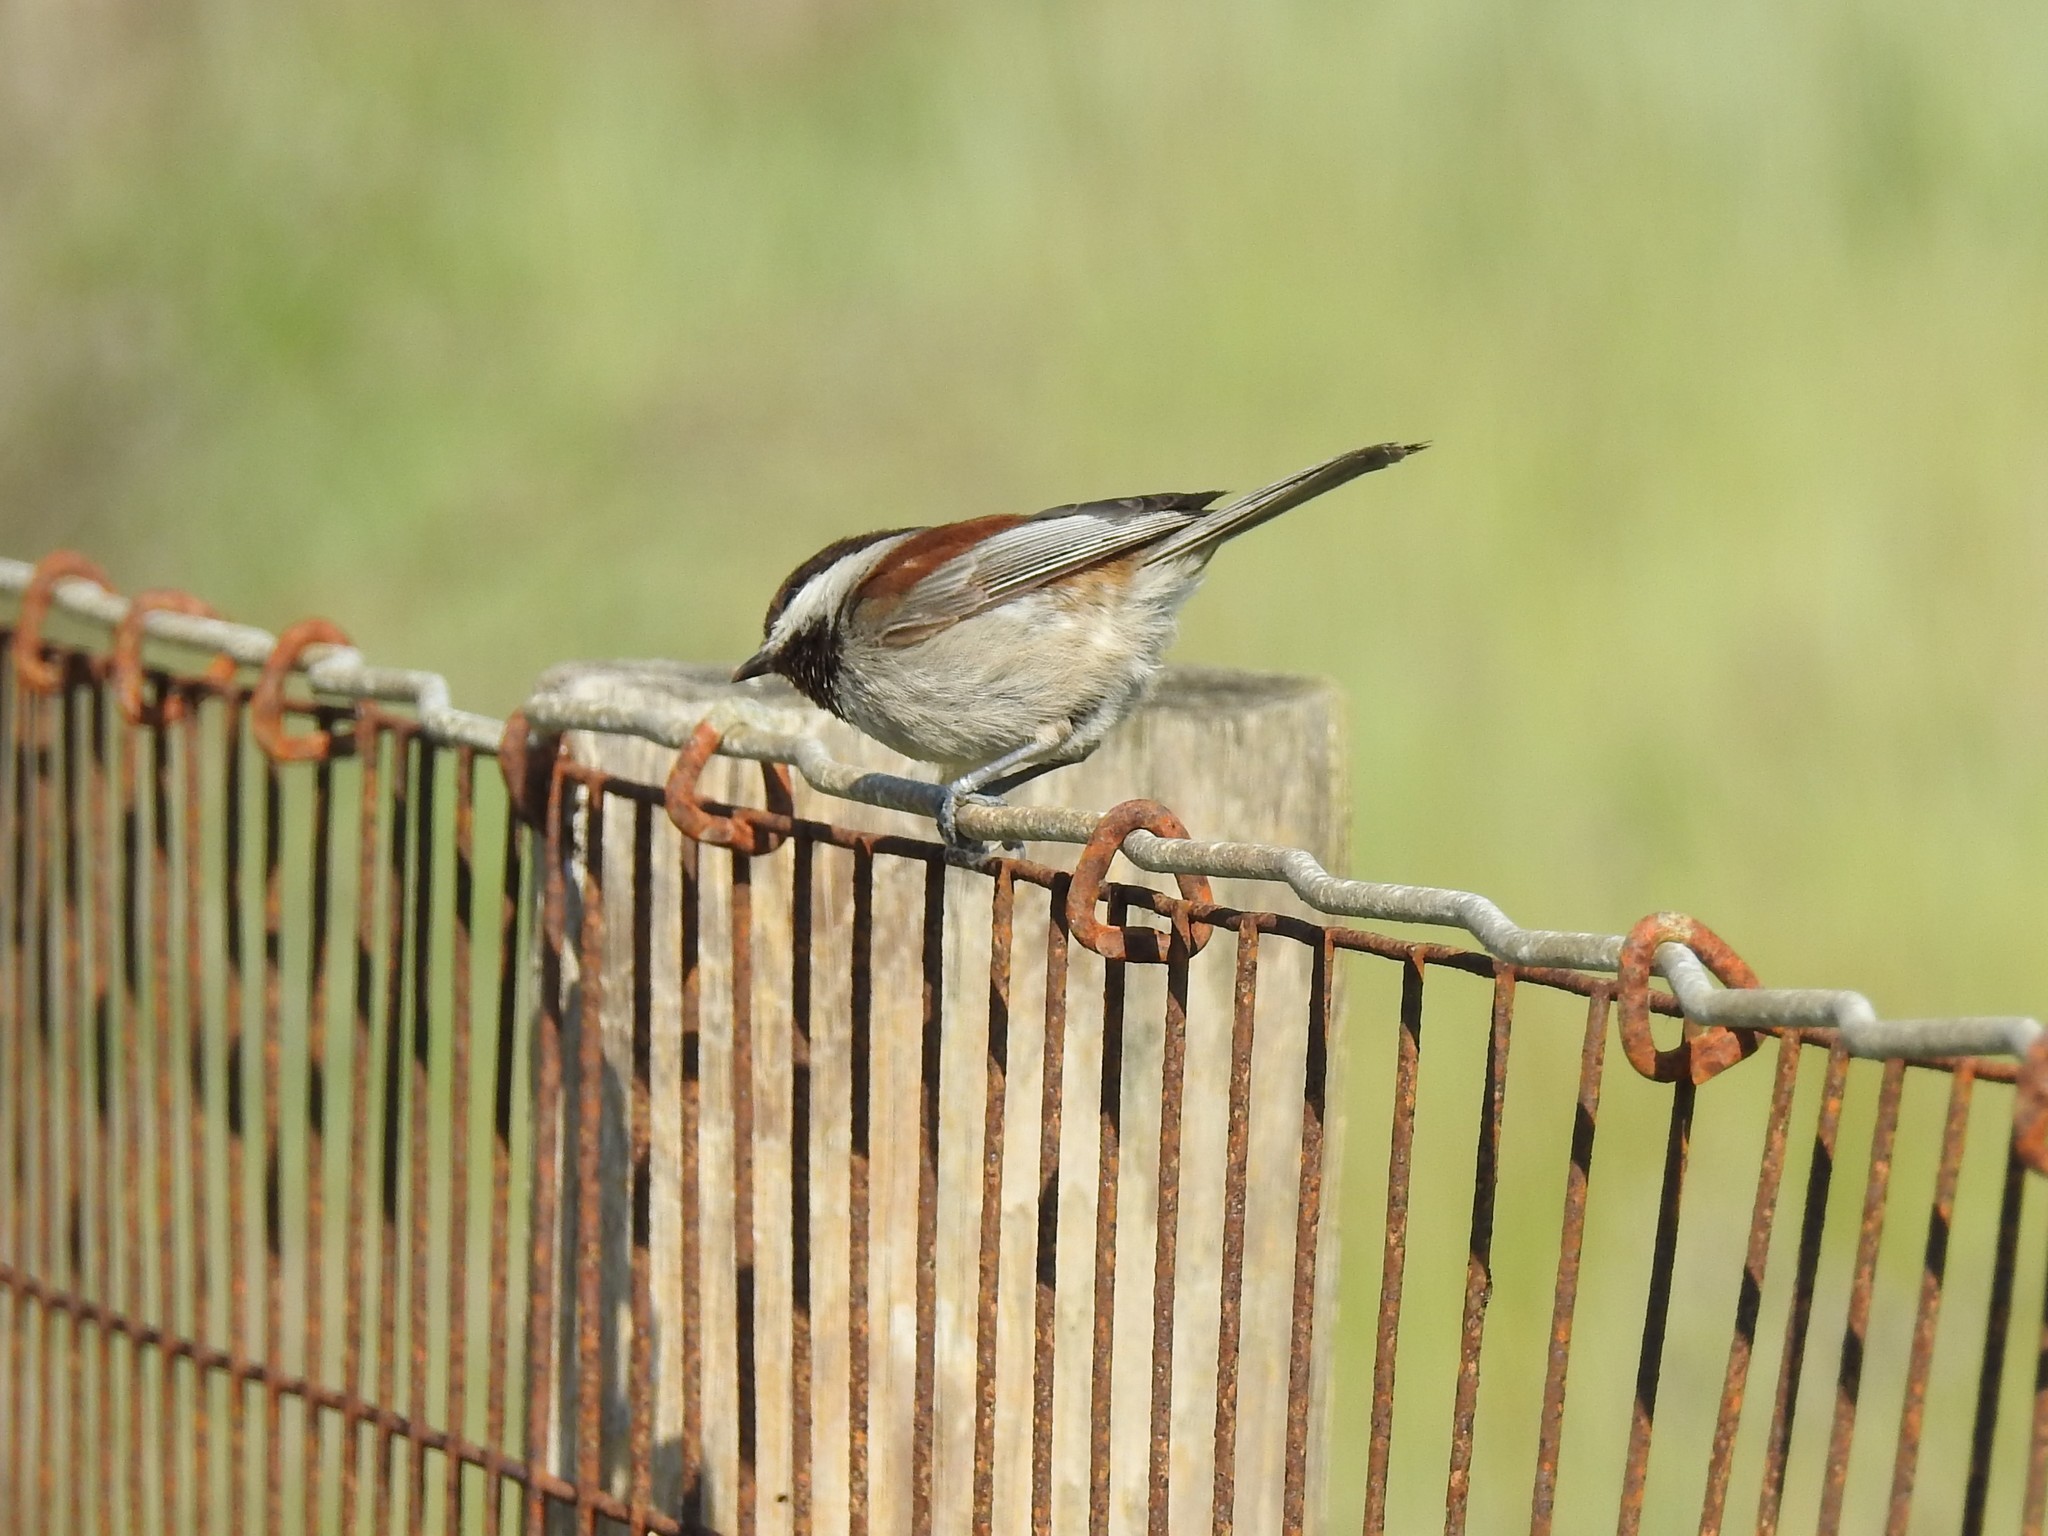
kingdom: Animalia
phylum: Chordata
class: Aves
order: Passeriformes
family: Paridae
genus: Poecile
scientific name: Poecile rufescens
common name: Chestnut-backed chickadee
